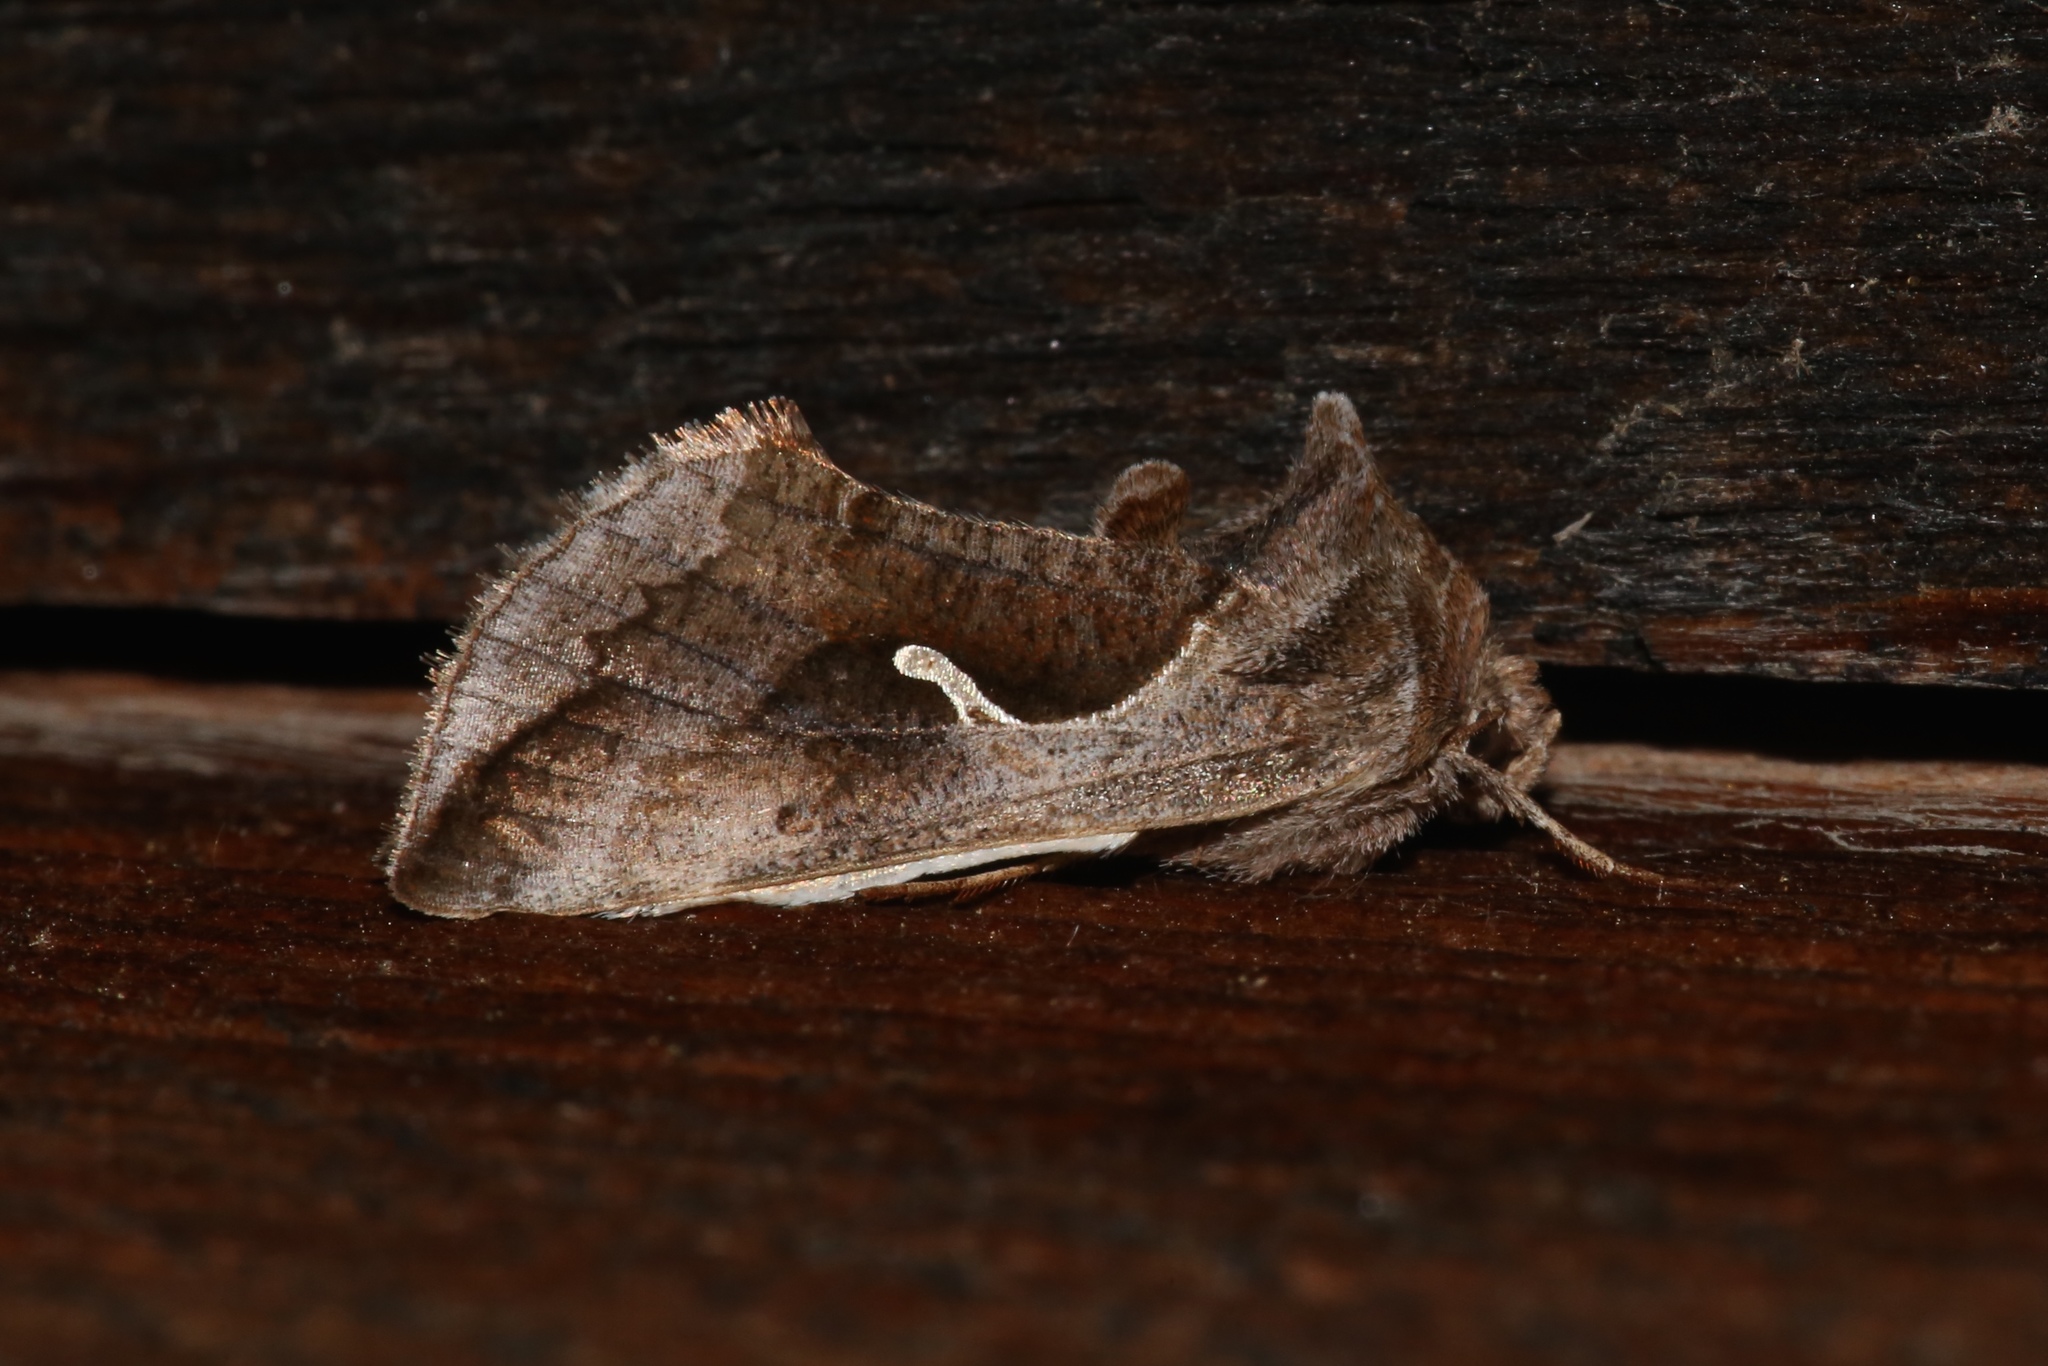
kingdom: Animalia
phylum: Arthropoda
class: Insecta
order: Lepidoptera
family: Noctuidae
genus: Anagrapha
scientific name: Anagrapha falcifera
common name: Celery looper
